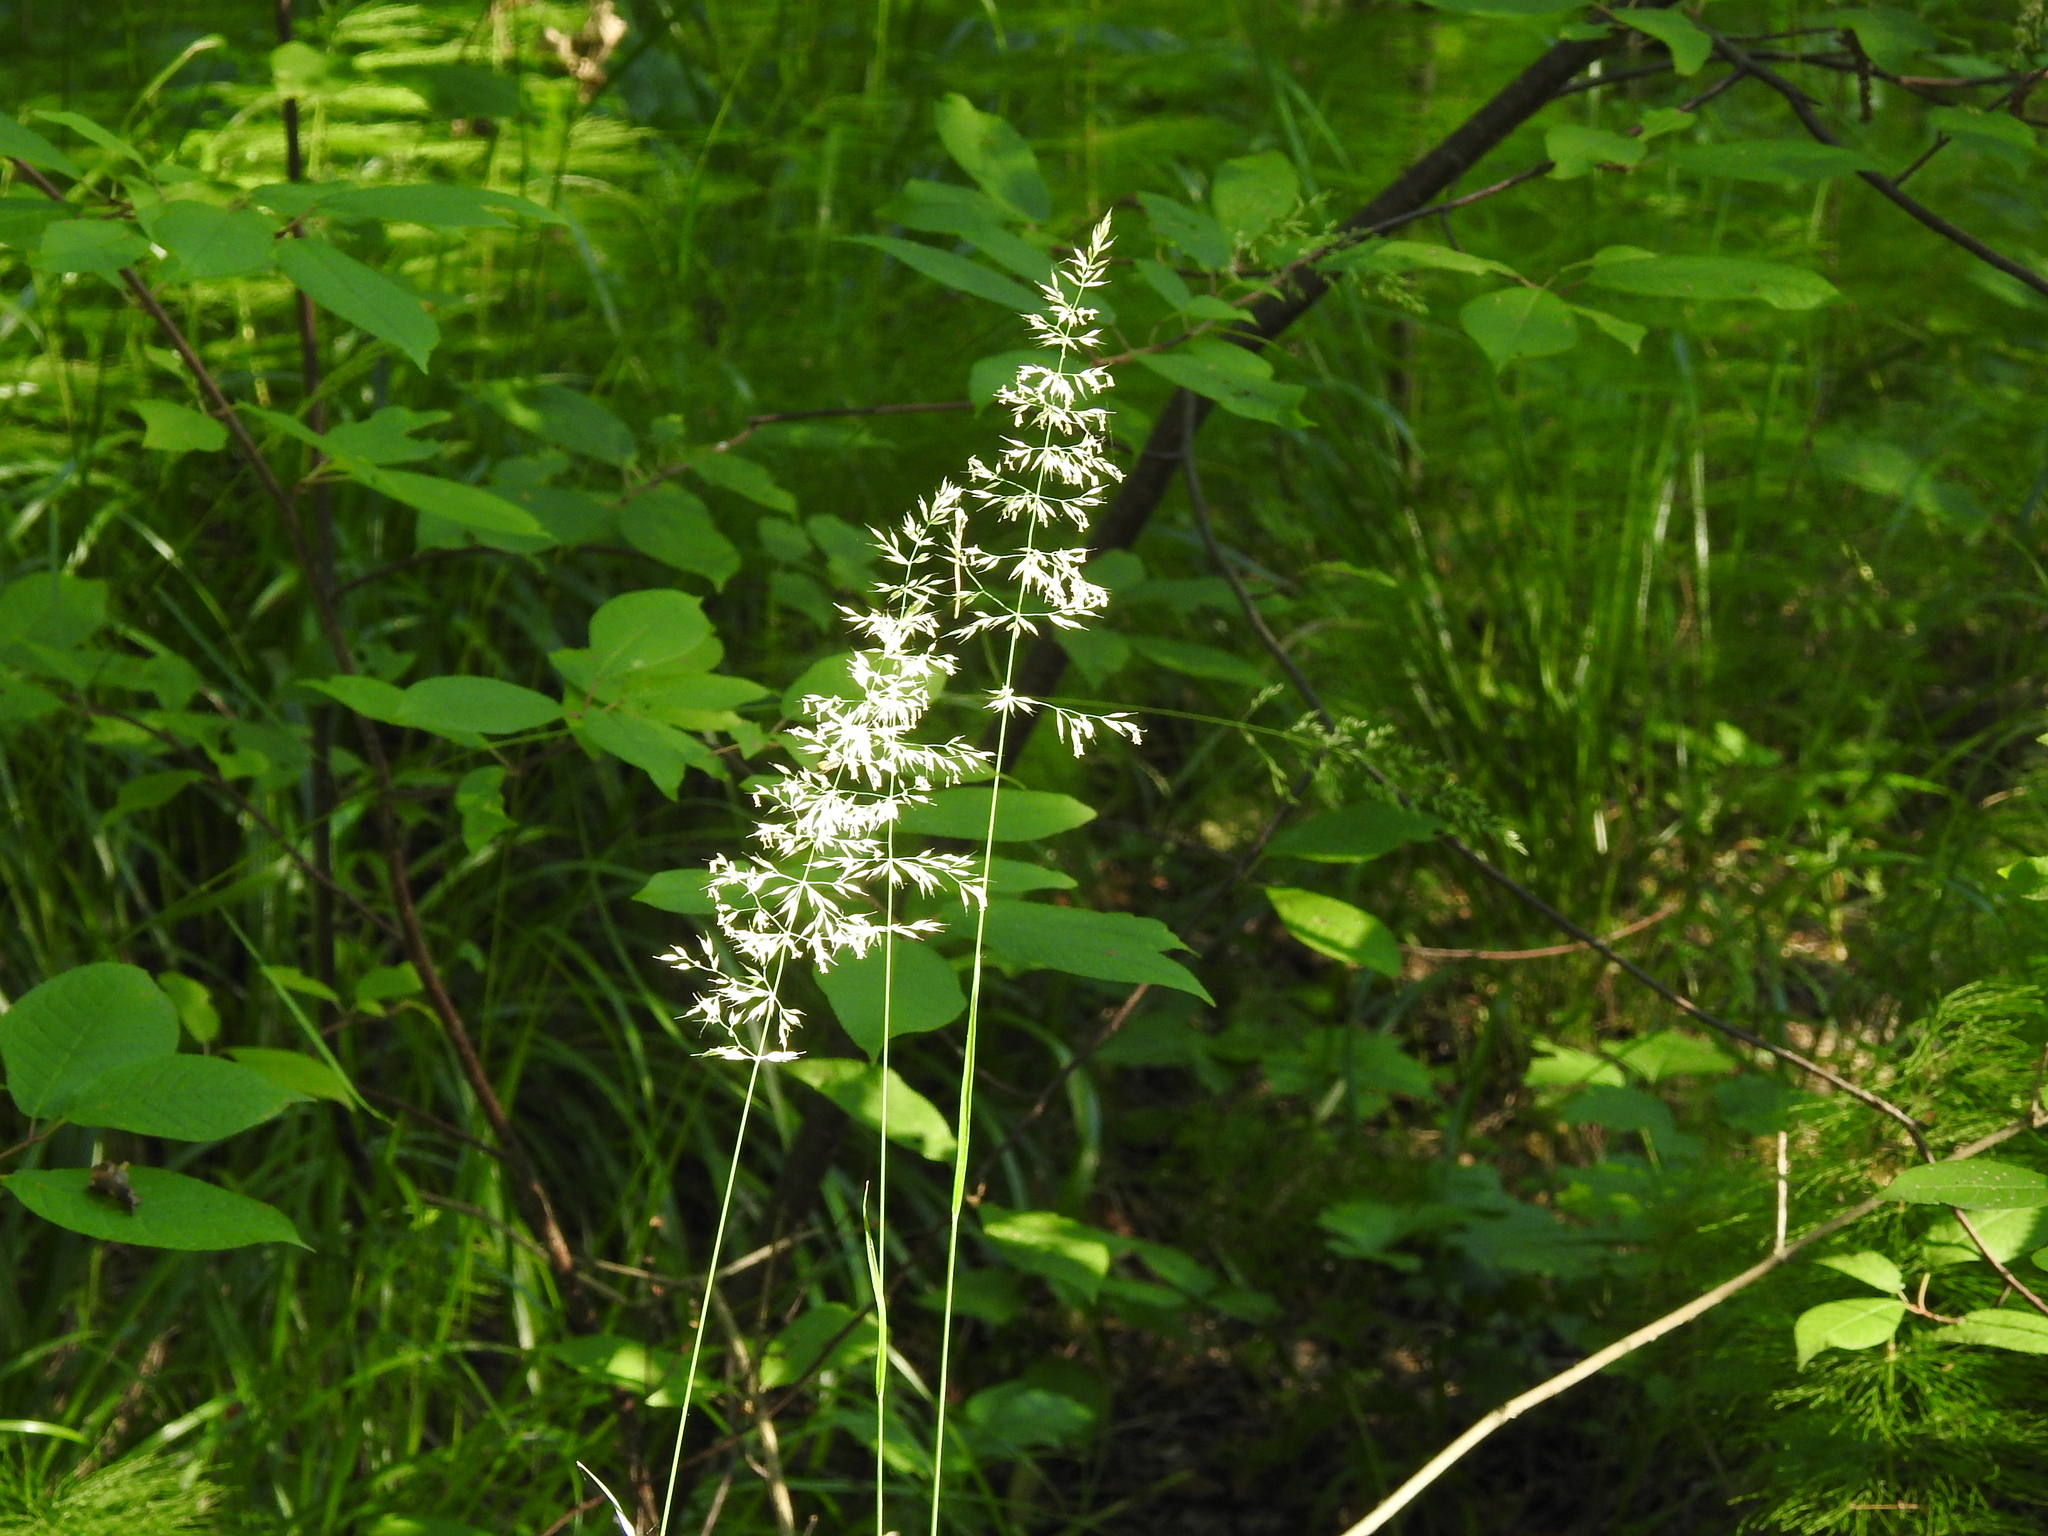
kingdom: Plantae
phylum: Tracheophyta
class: Liliopsida
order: Poales
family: Poaceae
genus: Calamagrostis
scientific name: Calamagrostis arundinacea
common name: Metskastik
